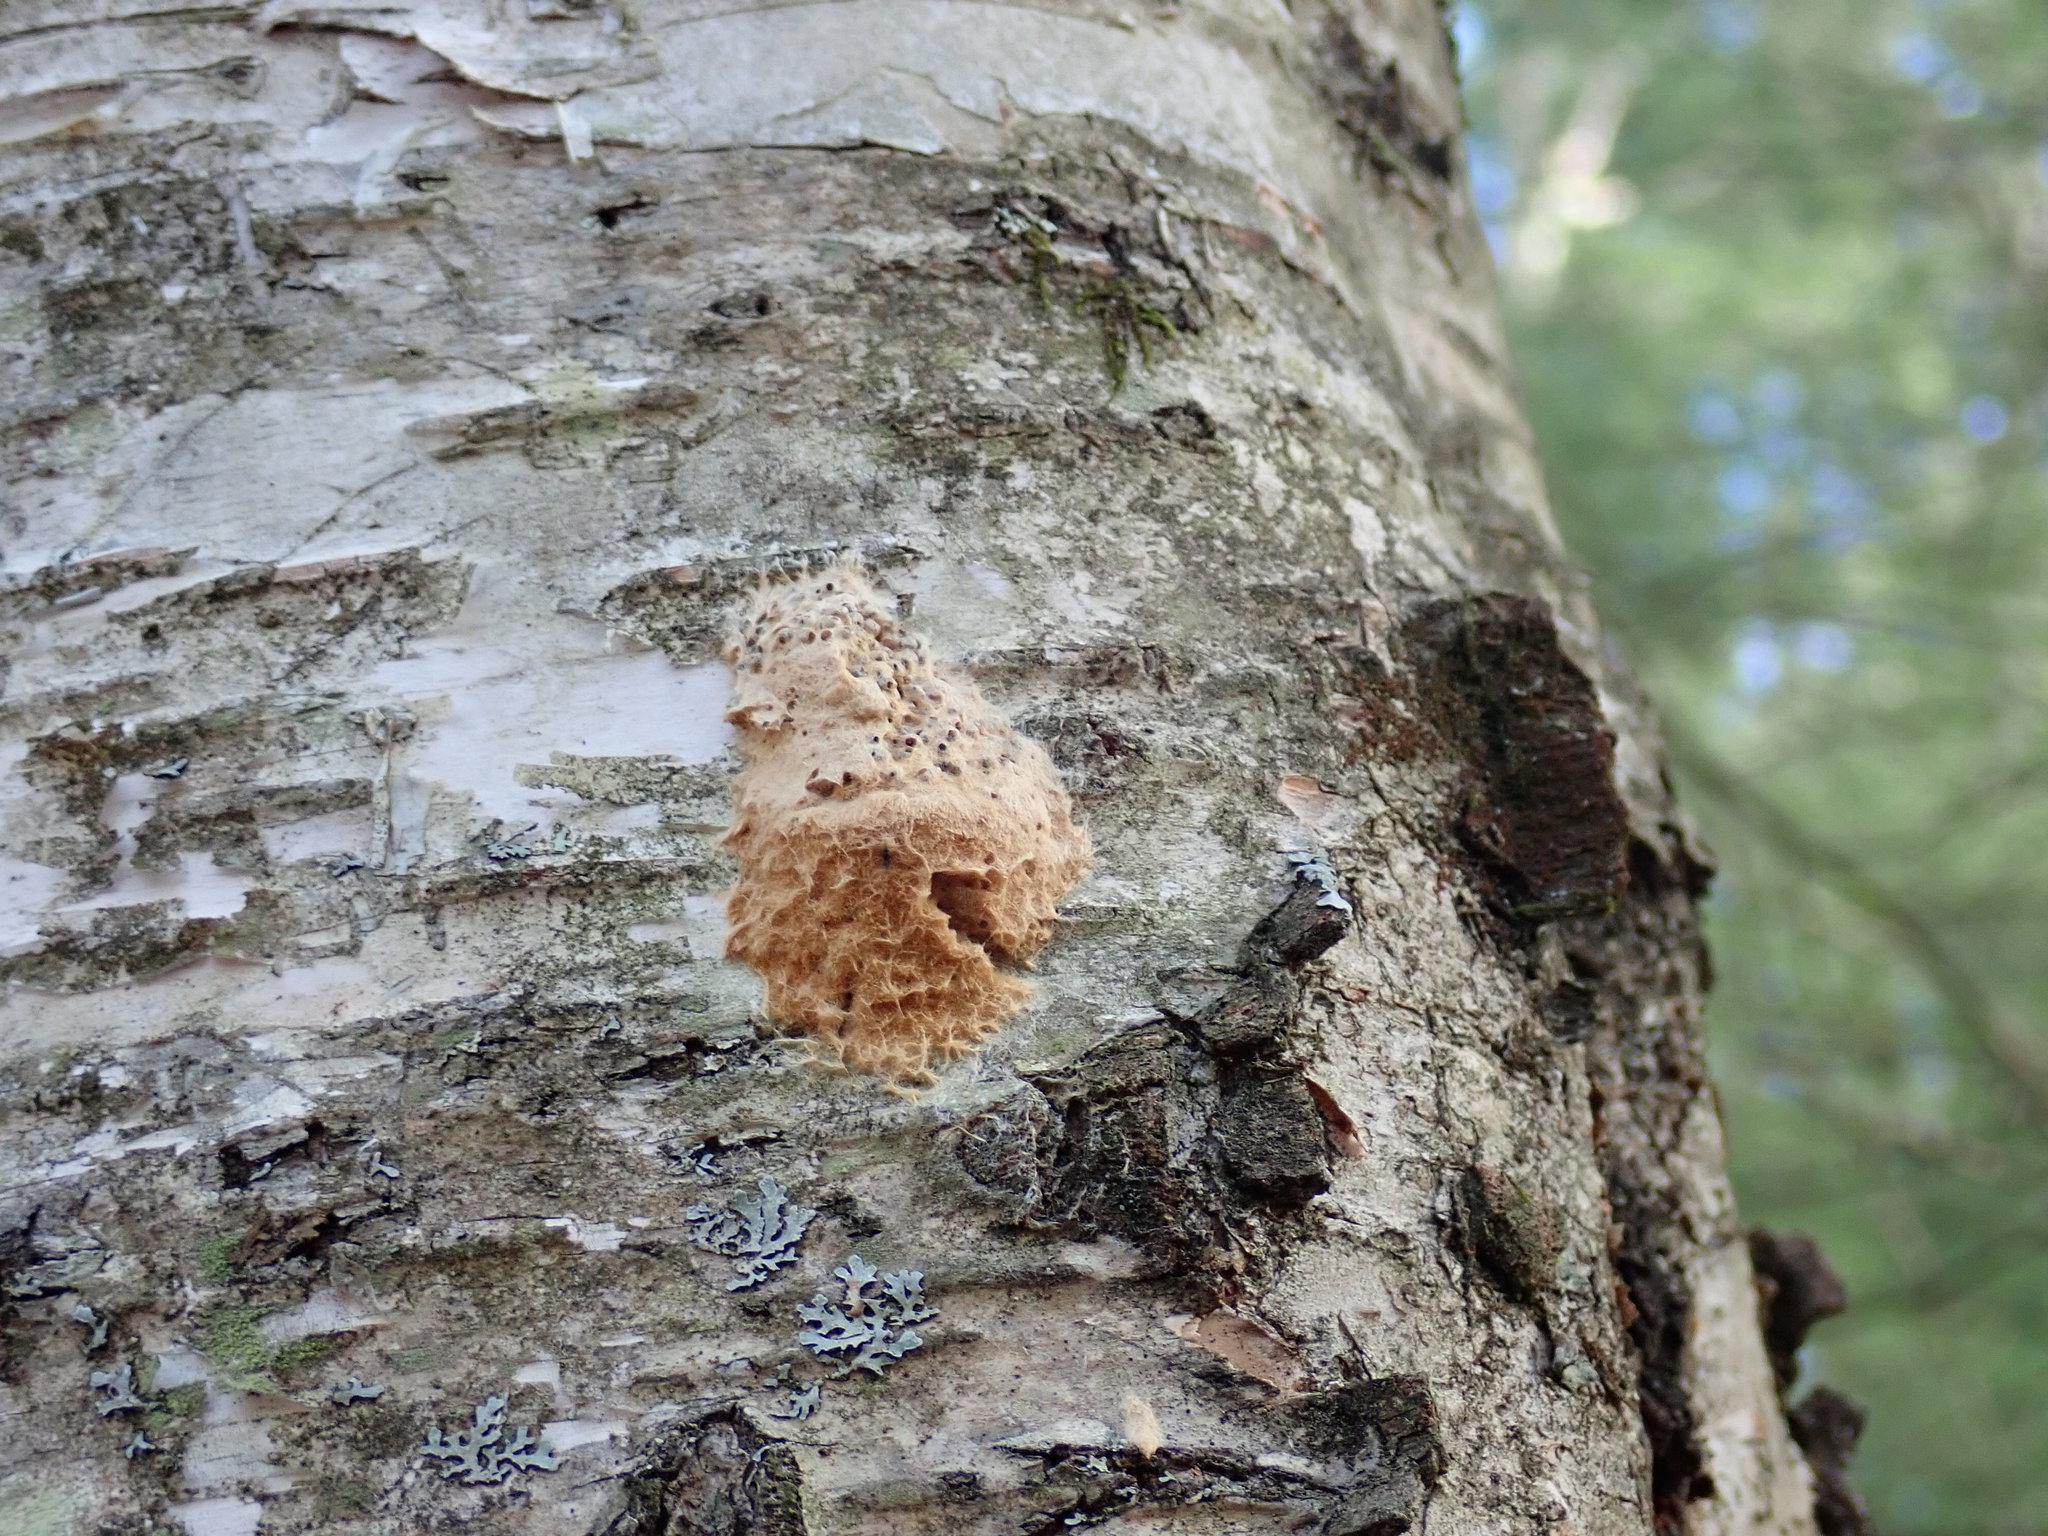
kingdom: Animalia
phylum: Arthropoda
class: Insecta
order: Lepidoptera
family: Erebidae
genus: Lymantria
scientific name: Lymantria dispar
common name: Gypsy moth
